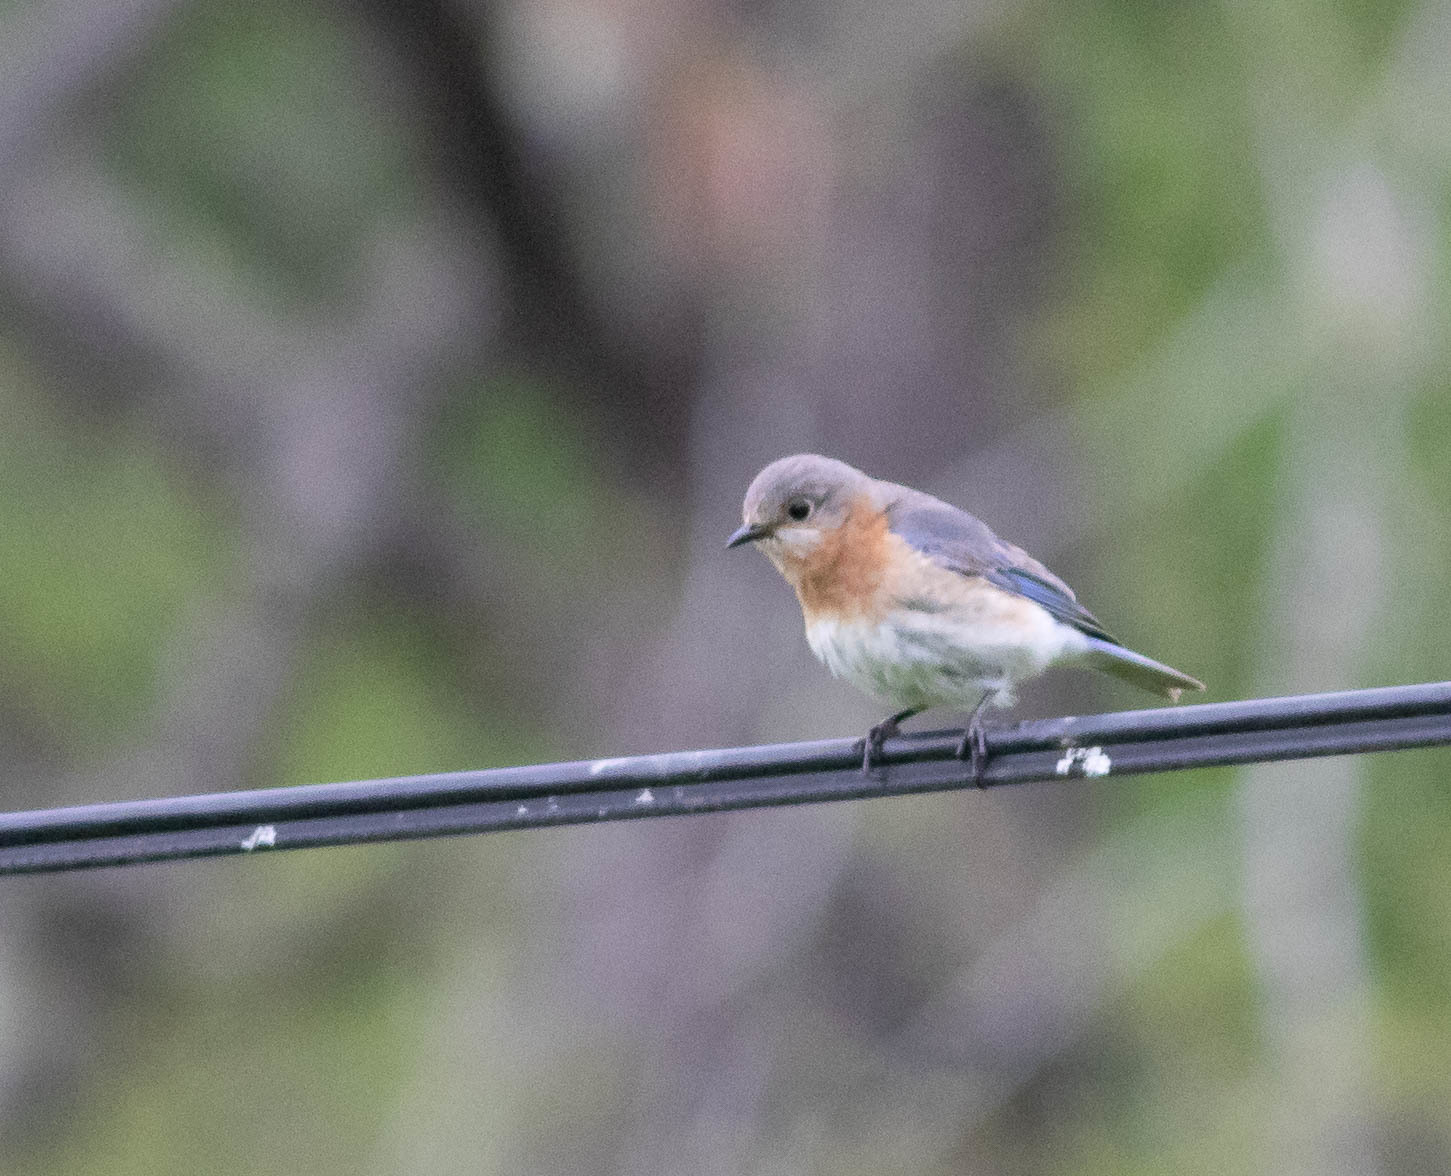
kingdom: Animalia
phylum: Chordata
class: Aves
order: Passeriformes
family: Turdidae
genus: Sialia
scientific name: Sialia sialis
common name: Eastern bluebird
